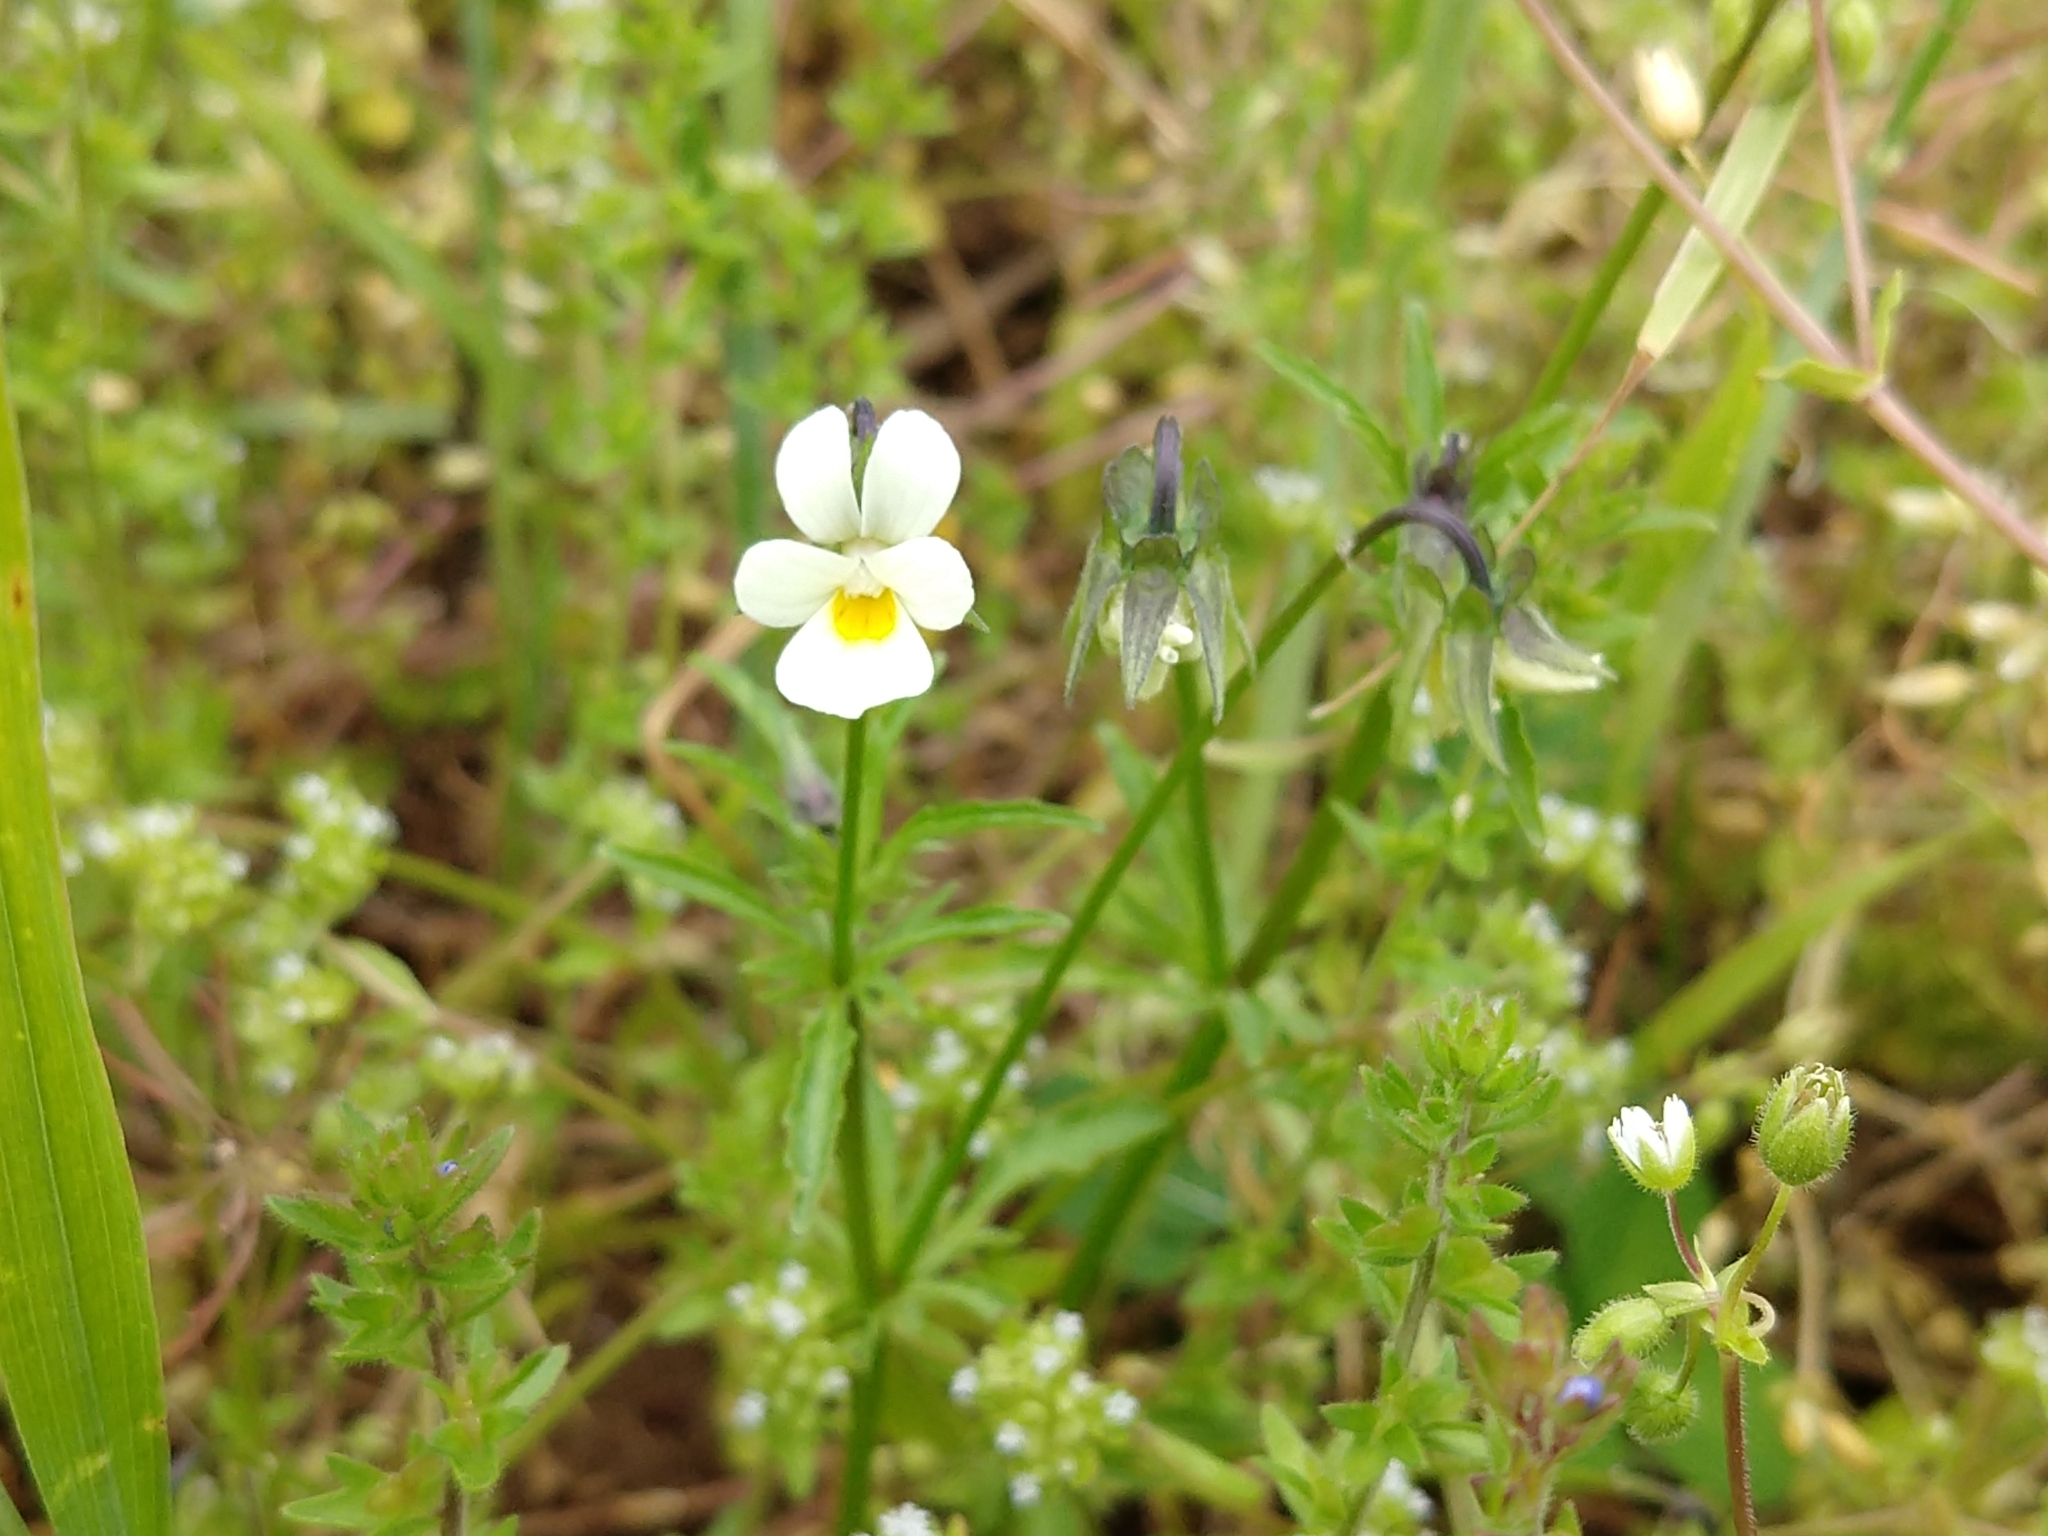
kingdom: Plantae
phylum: Tracheophyta
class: Magnoliopsida
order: Malpighiales
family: Violaceae
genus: Viola
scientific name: Viola arvensis
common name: Field pansy
